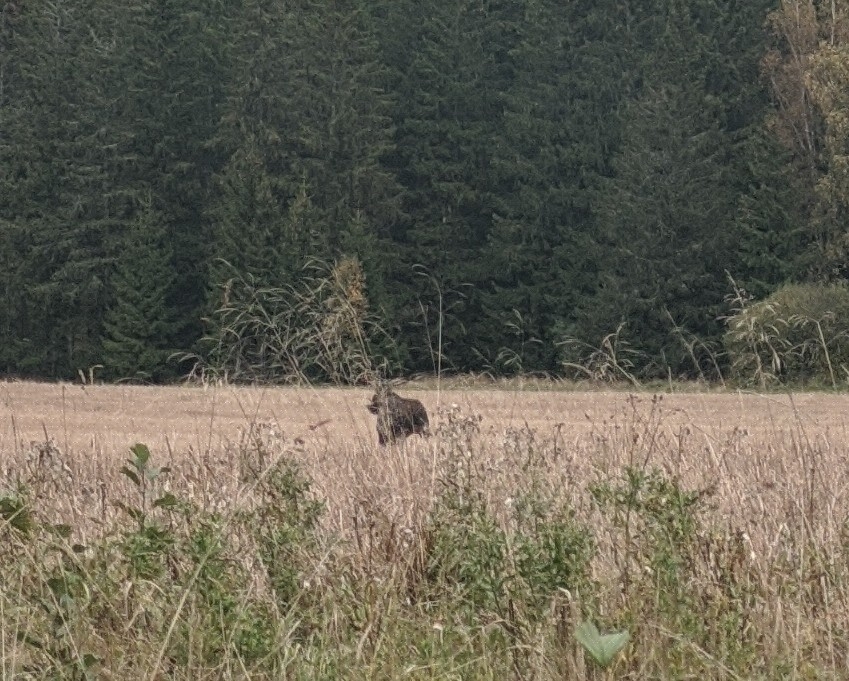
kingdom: Animalia
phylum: Chordata
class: Mammalia
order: Artiodactyla
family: Cervidae
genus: Alces
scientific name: Alces alces
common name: Moose
